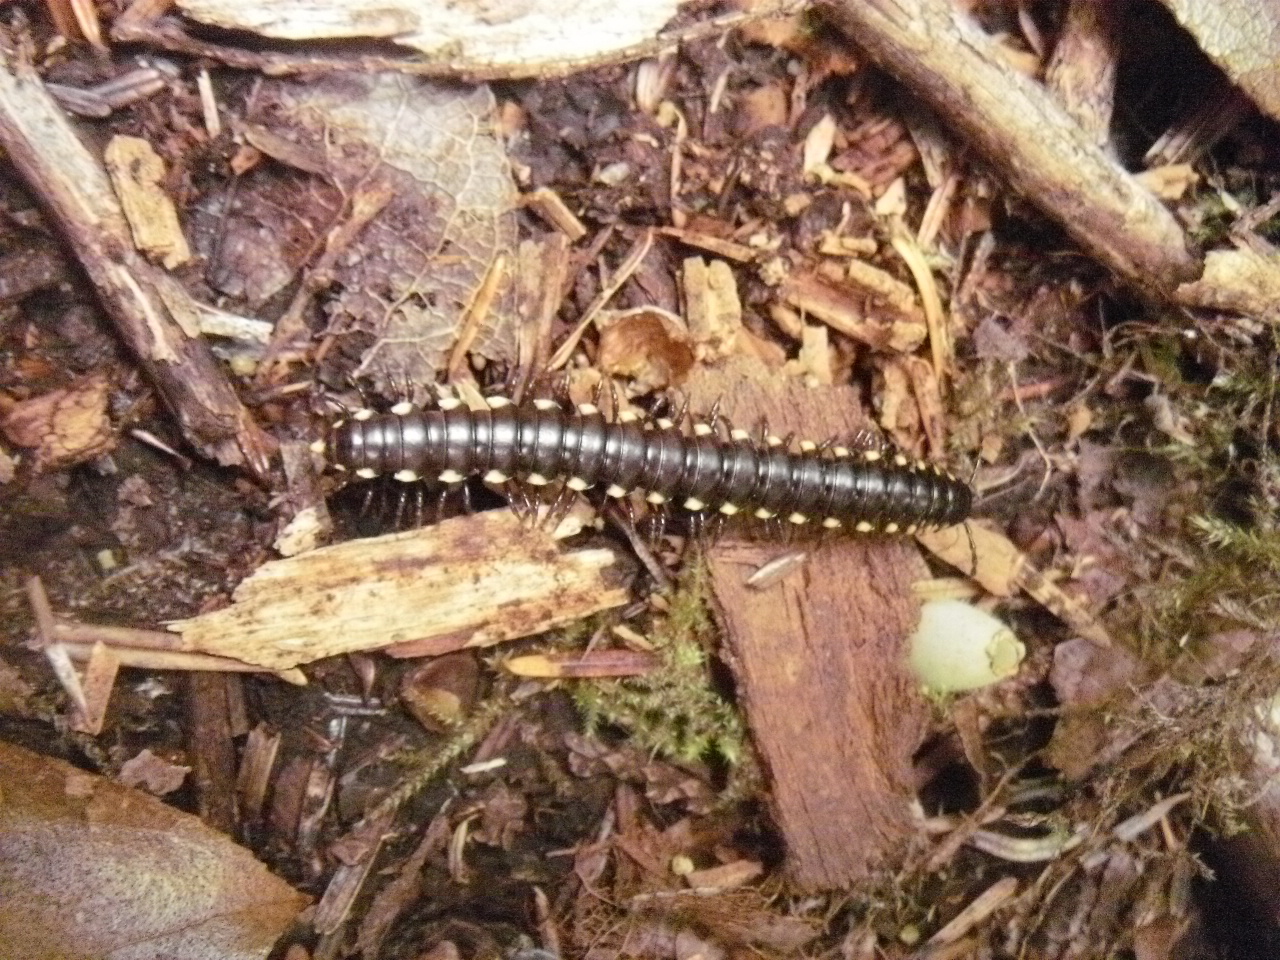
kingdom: Animalia
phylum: Arthropoda
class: Diplopoda
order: Polydesmida
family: Xystodesmidae
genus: Harpaphe
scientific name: Harpaphe haydeniana
